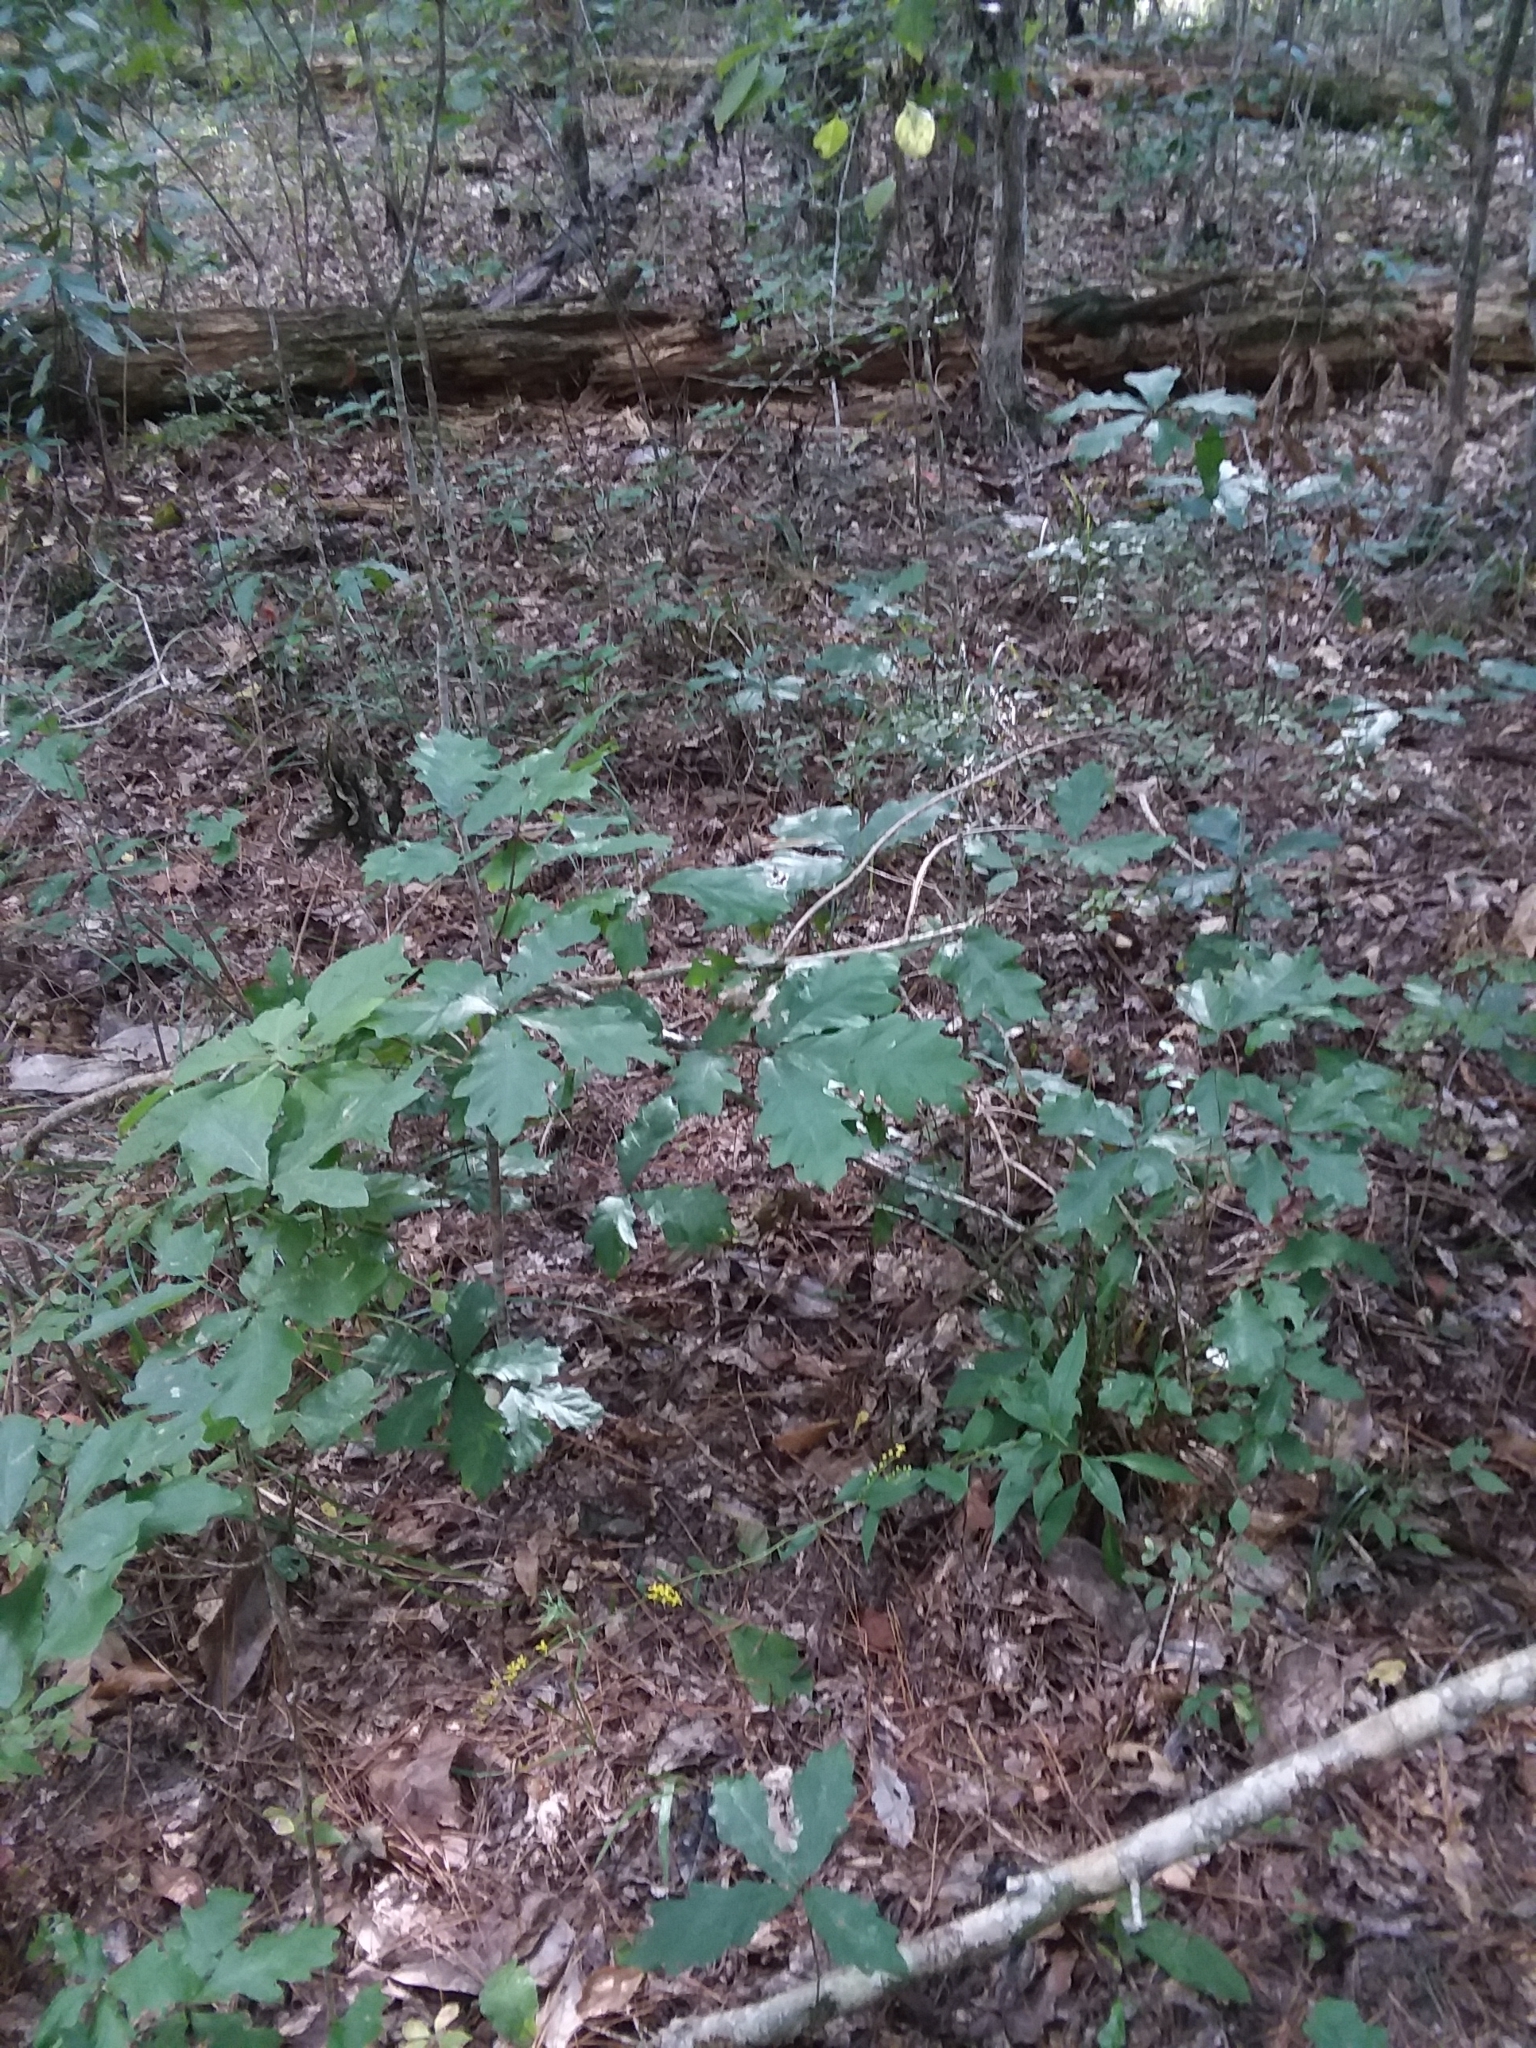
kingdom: Plantae
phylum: Tracheophyta
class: Magnoliopsida
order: Asterales
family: Asteraceae
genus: Solidago
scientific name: Solidago boottii
